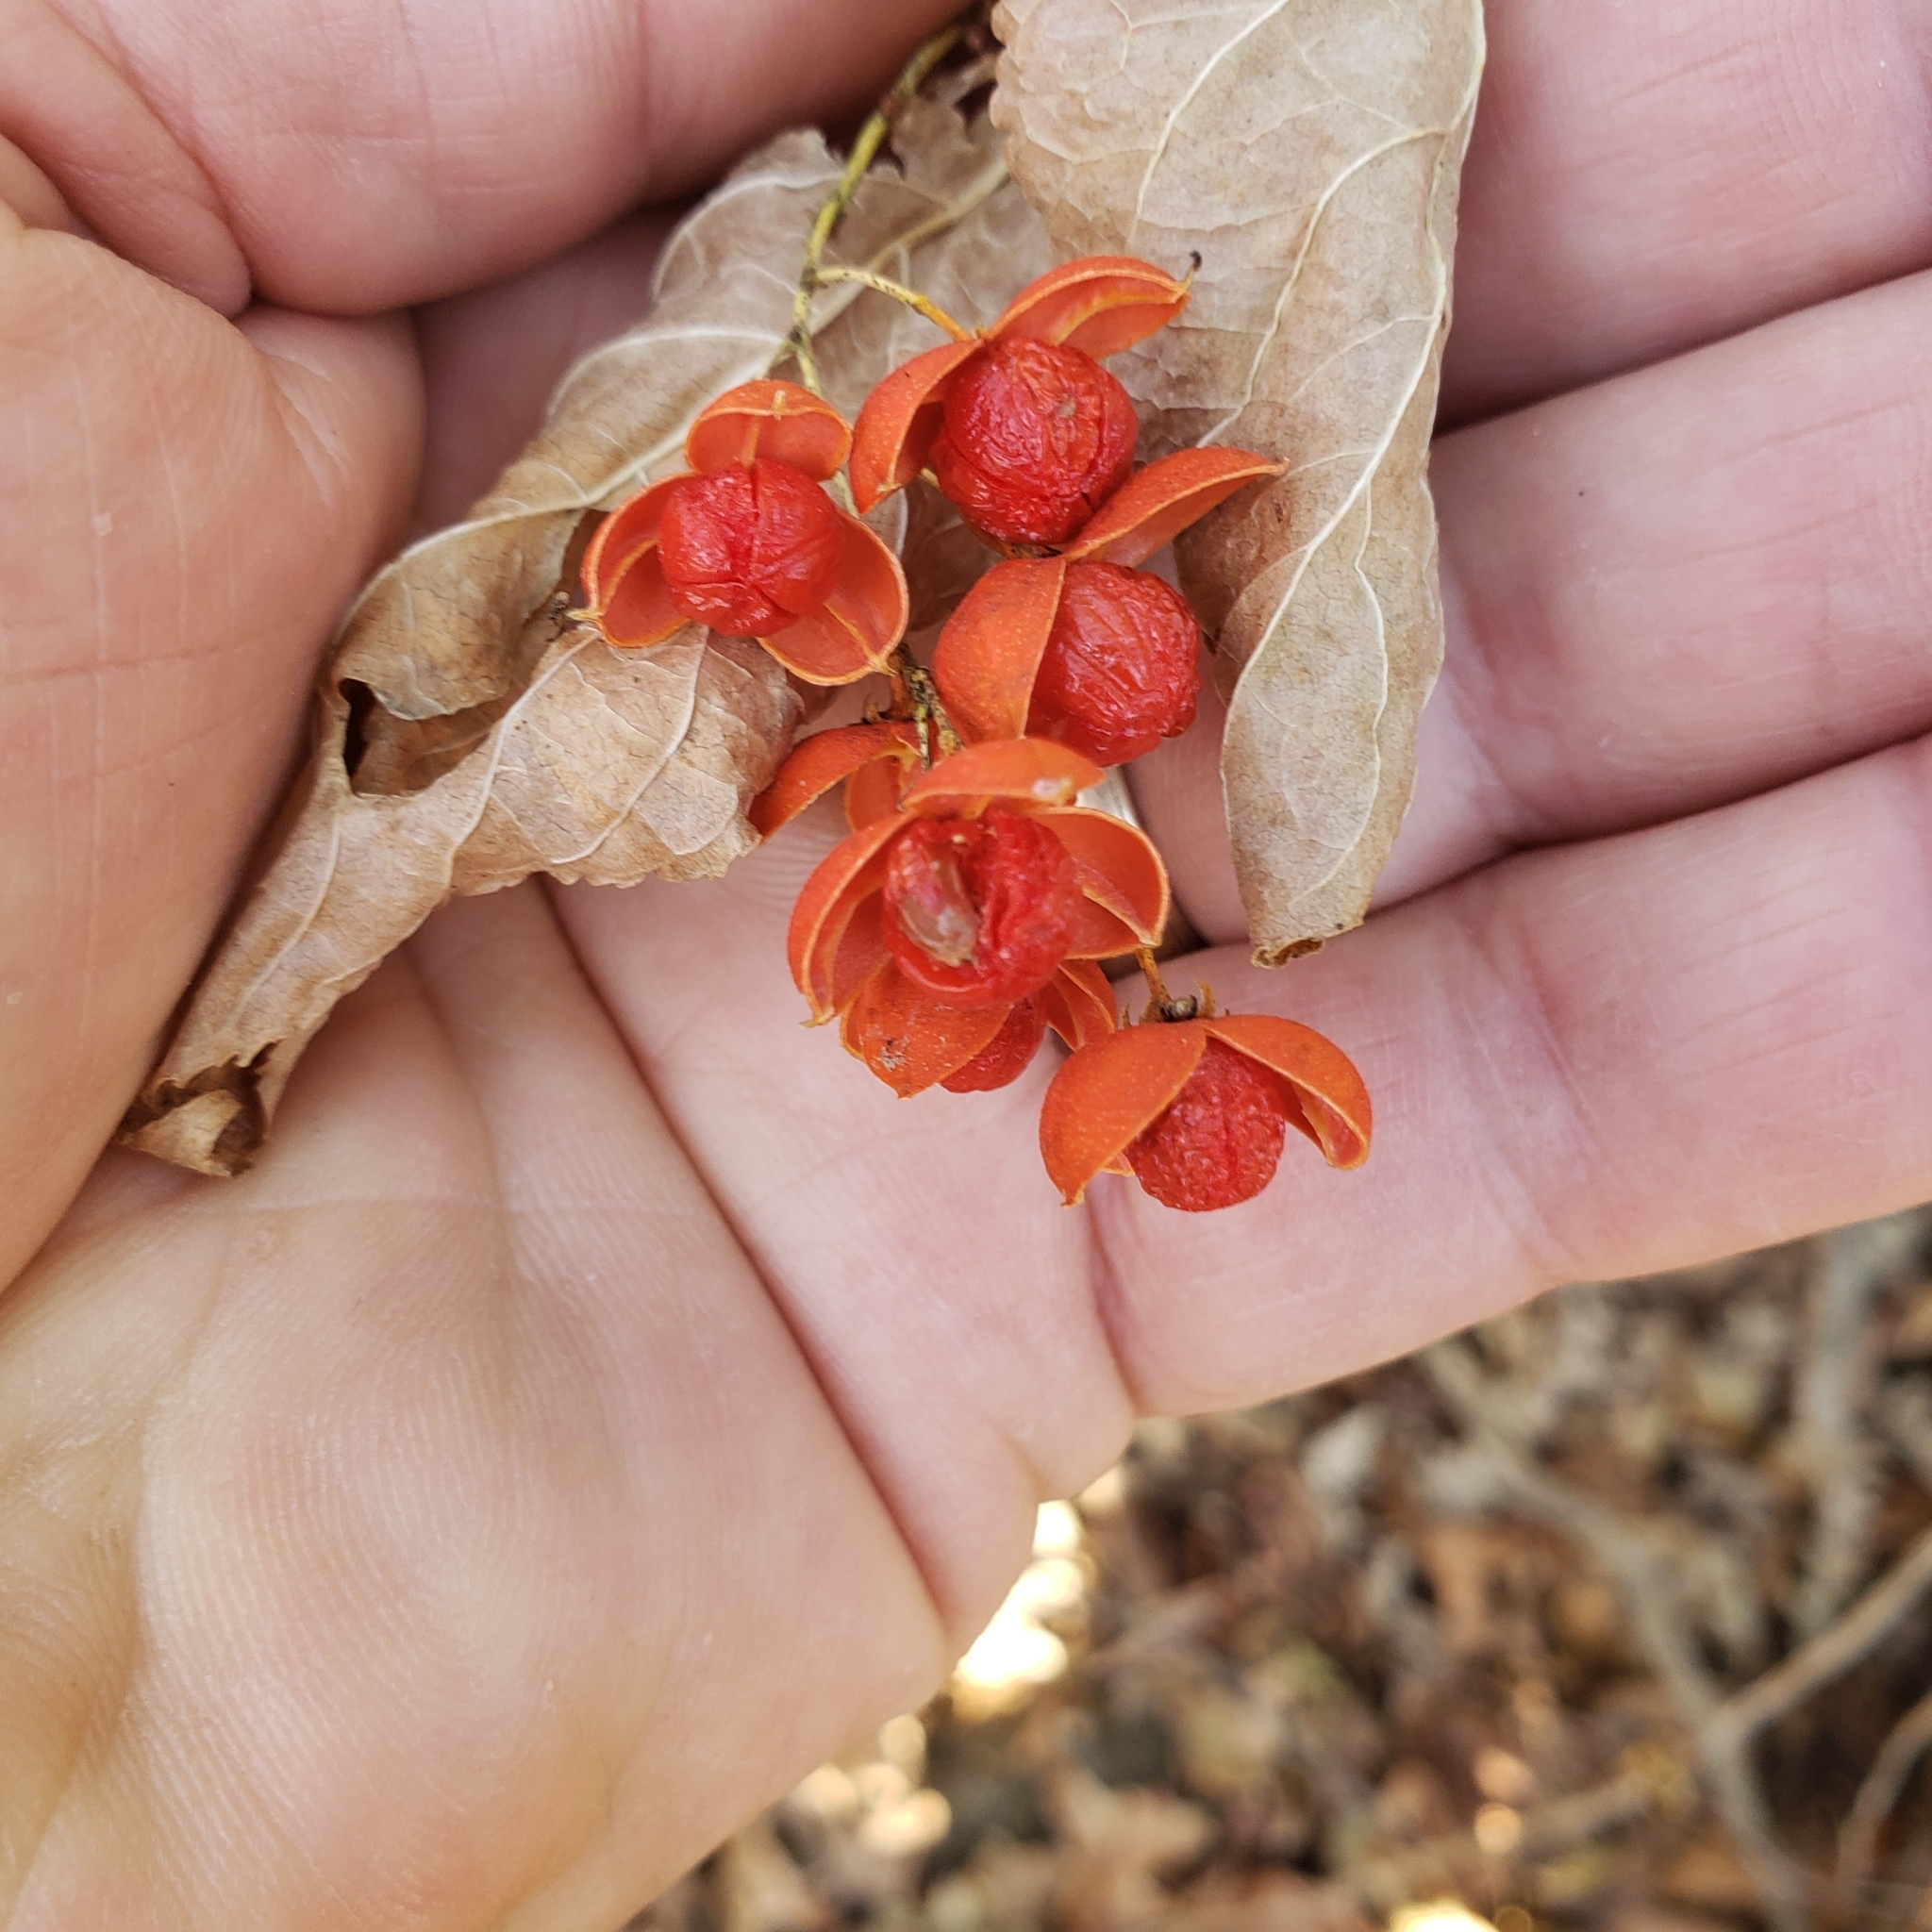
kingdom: Plantae
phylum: Tracheophyta
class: Magnoliopsida
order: Celastrales
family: Celastraceae
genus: Celastrus
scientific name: Celastrus scandens
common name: American bittersweet
